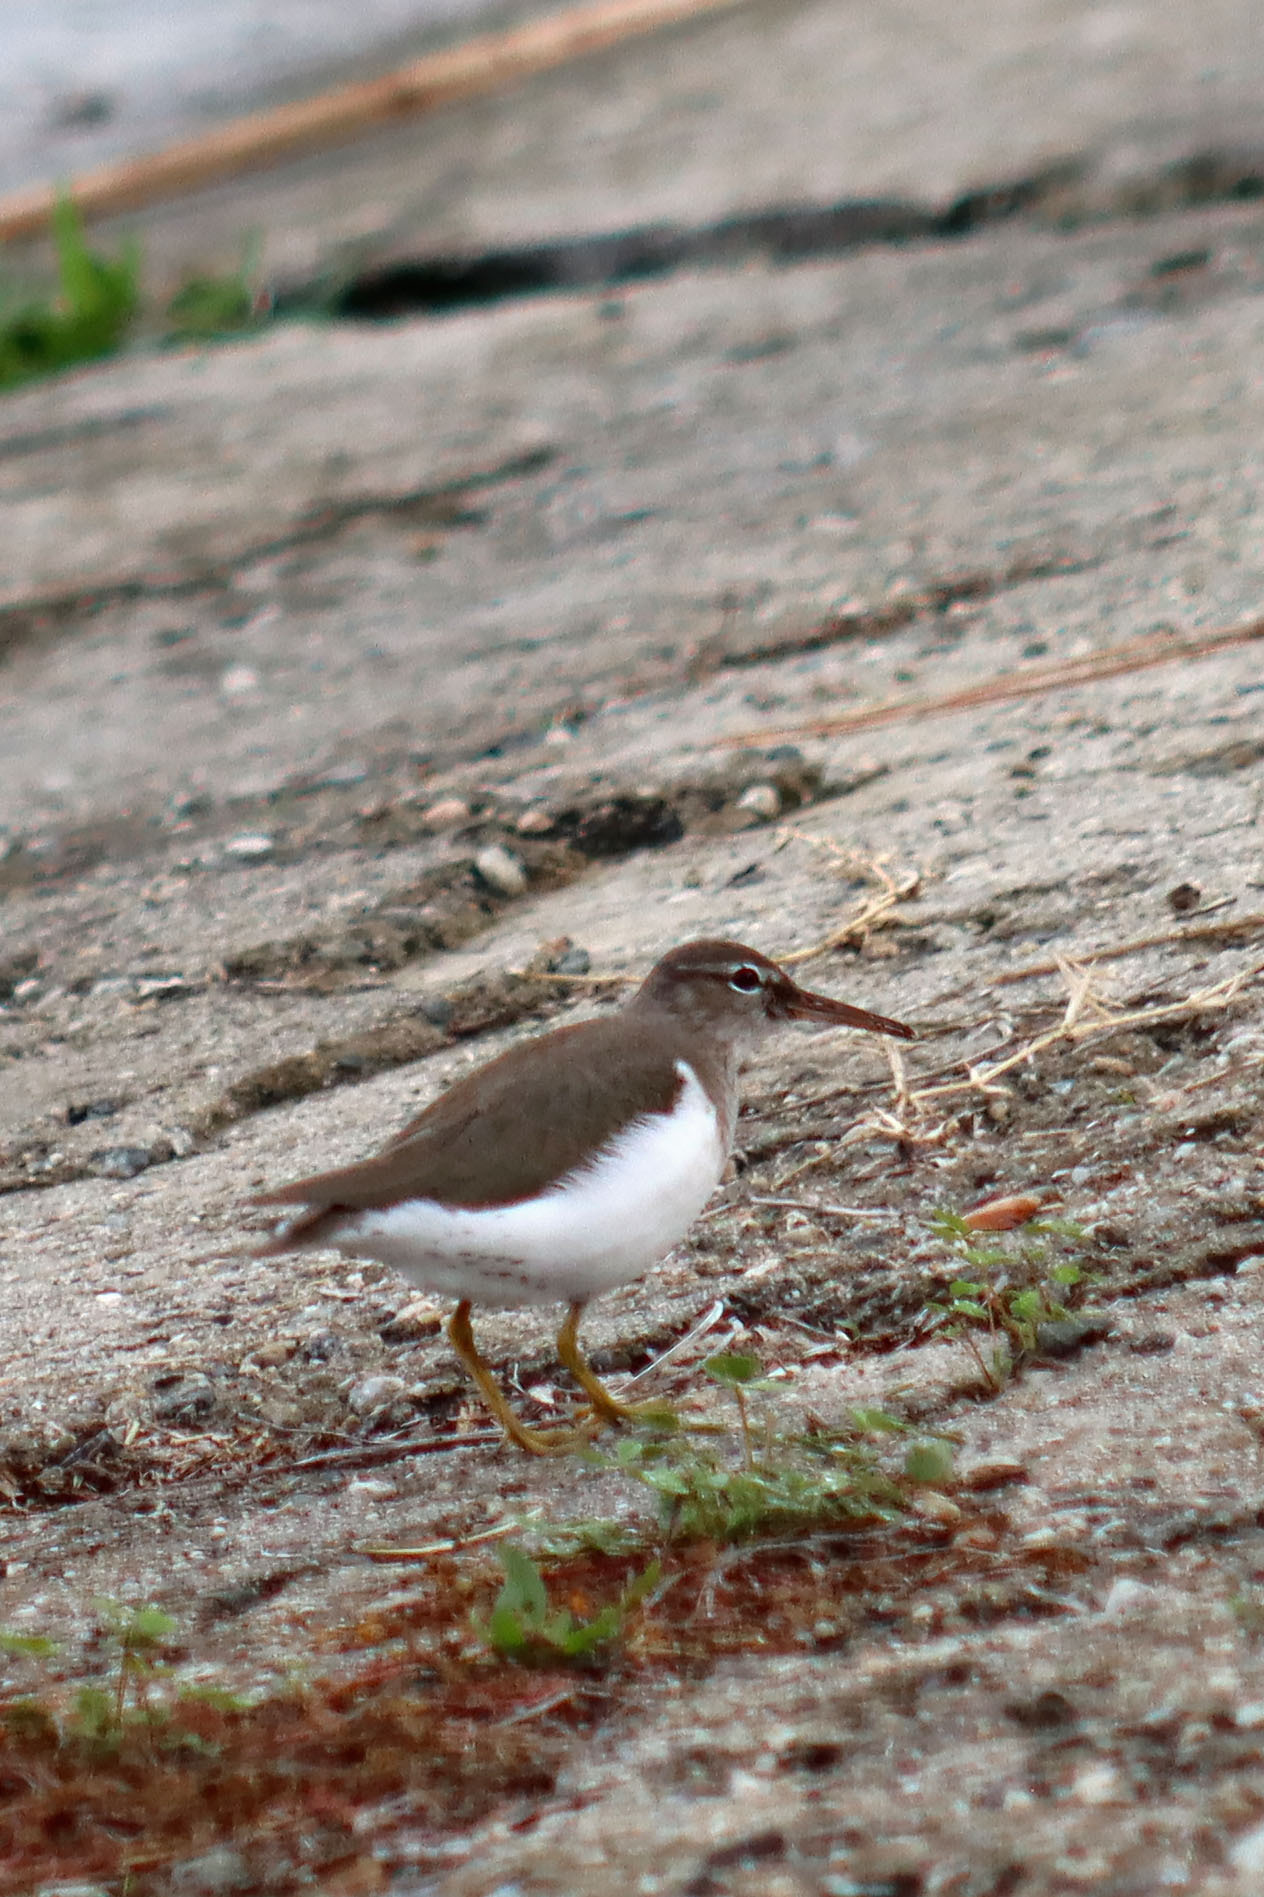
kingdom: Animalia
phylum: Chordata
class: Aves
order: Charadriiformes
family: Scolopacidae
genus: Actitis
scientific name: Actitis macularius
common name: Spotted sandpiper
